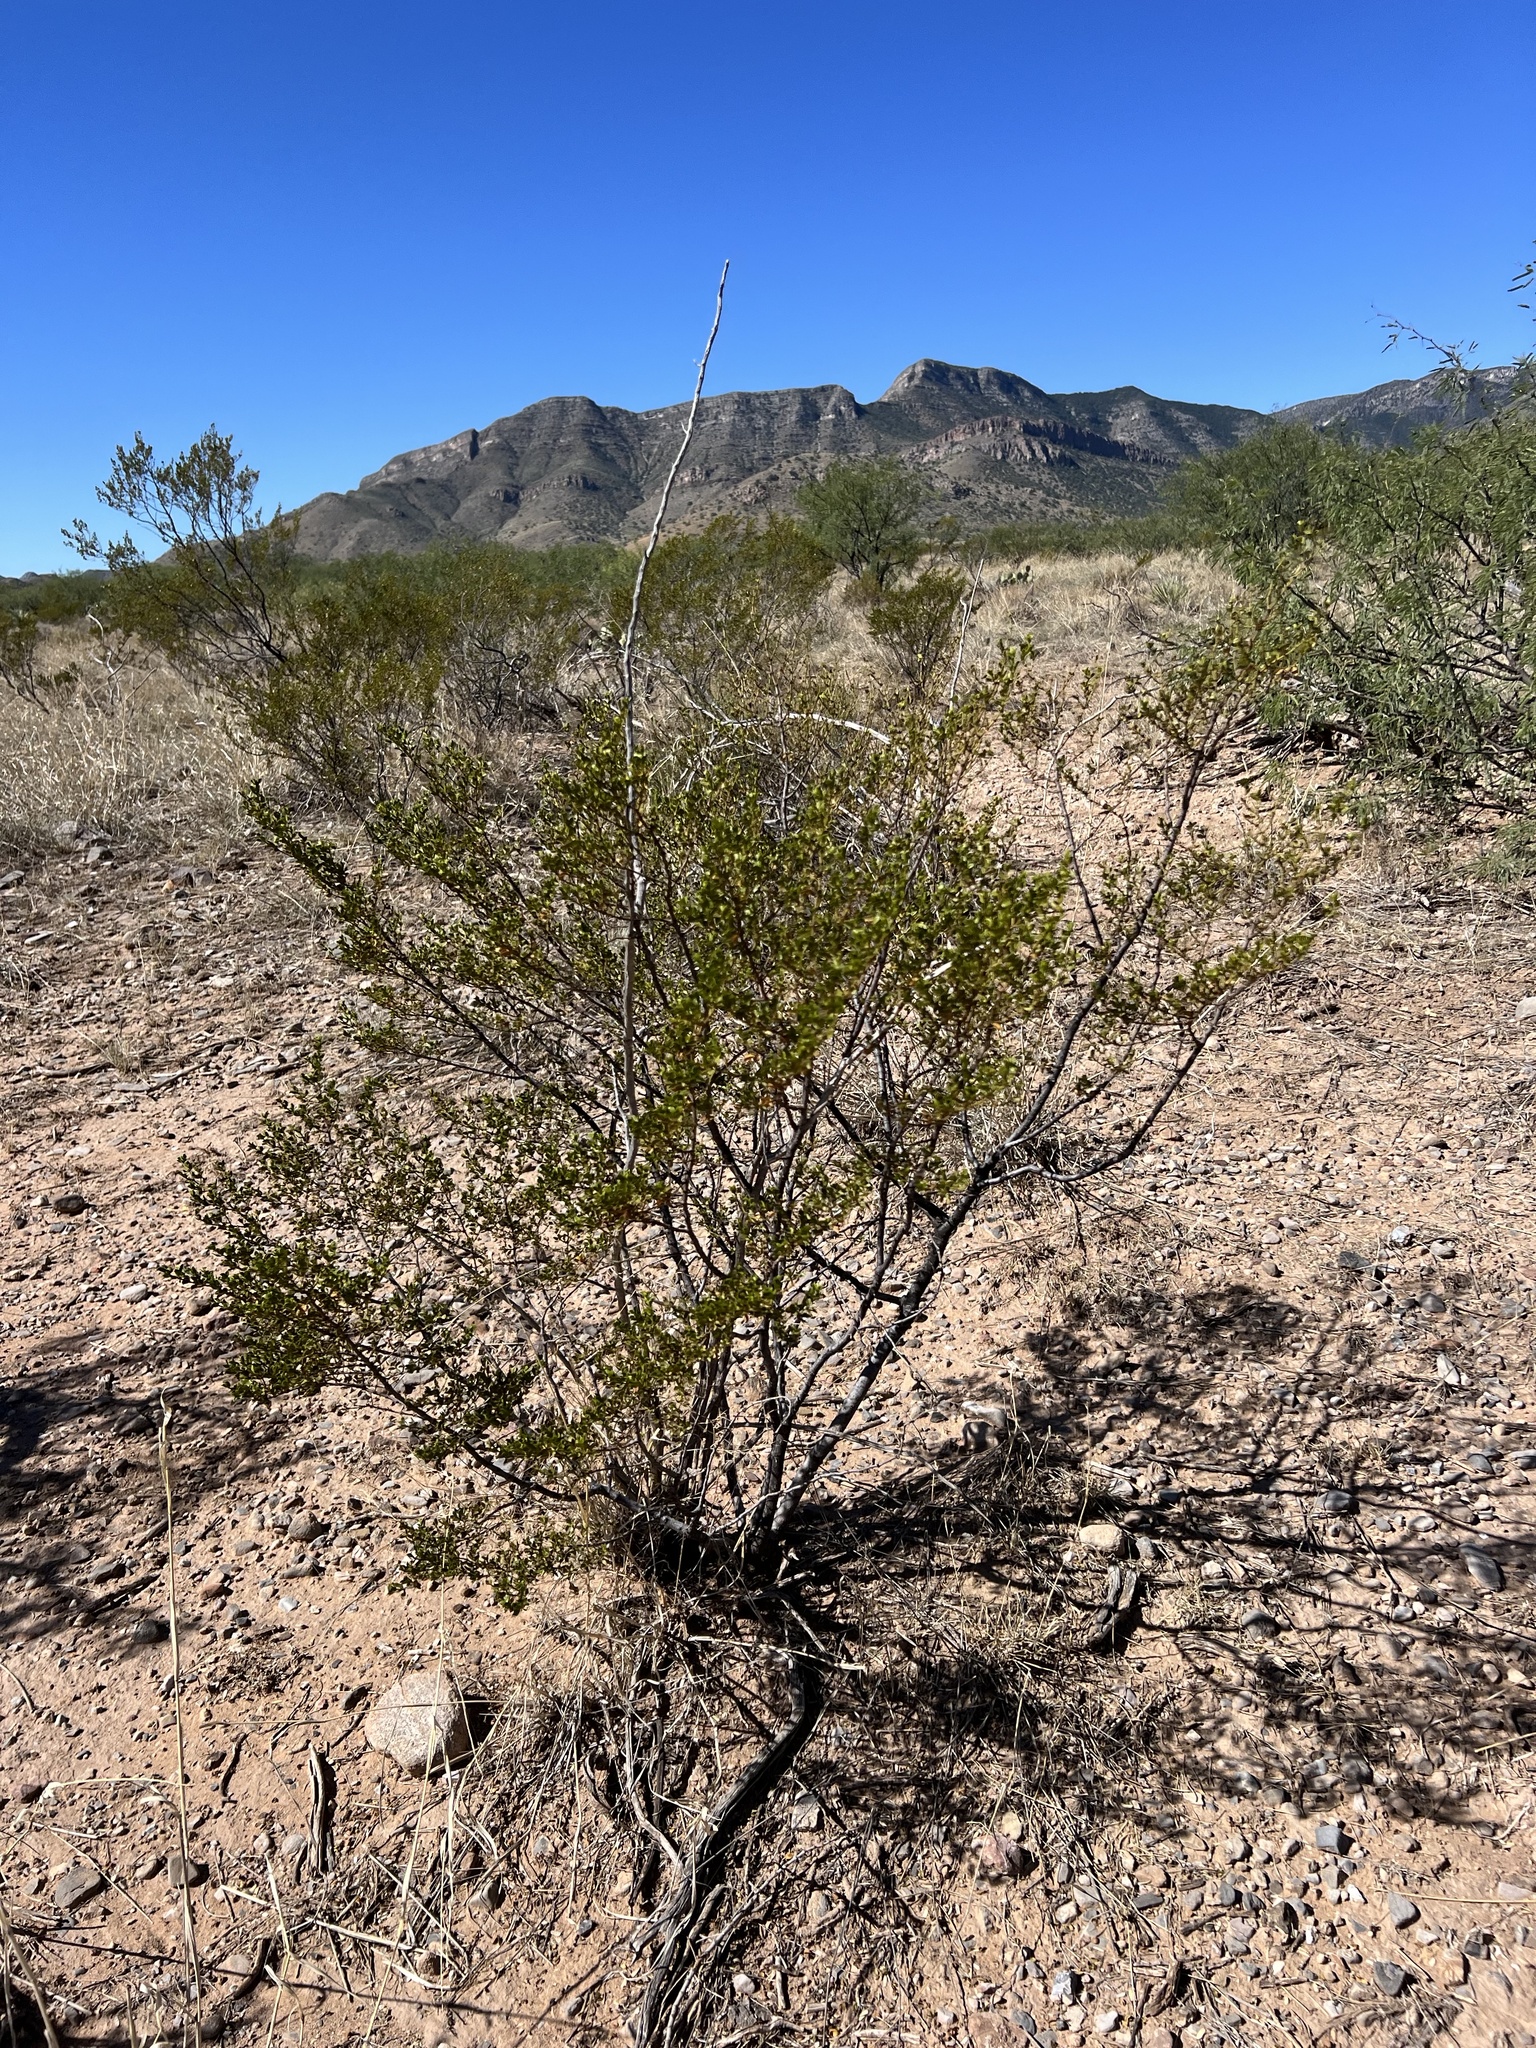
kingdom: Plantae
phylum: Tracheophyta
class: Magnoliopsida
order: Zygophyllales
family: Zygophyllaceae
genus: Larrea
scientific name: Larrea tridentata
